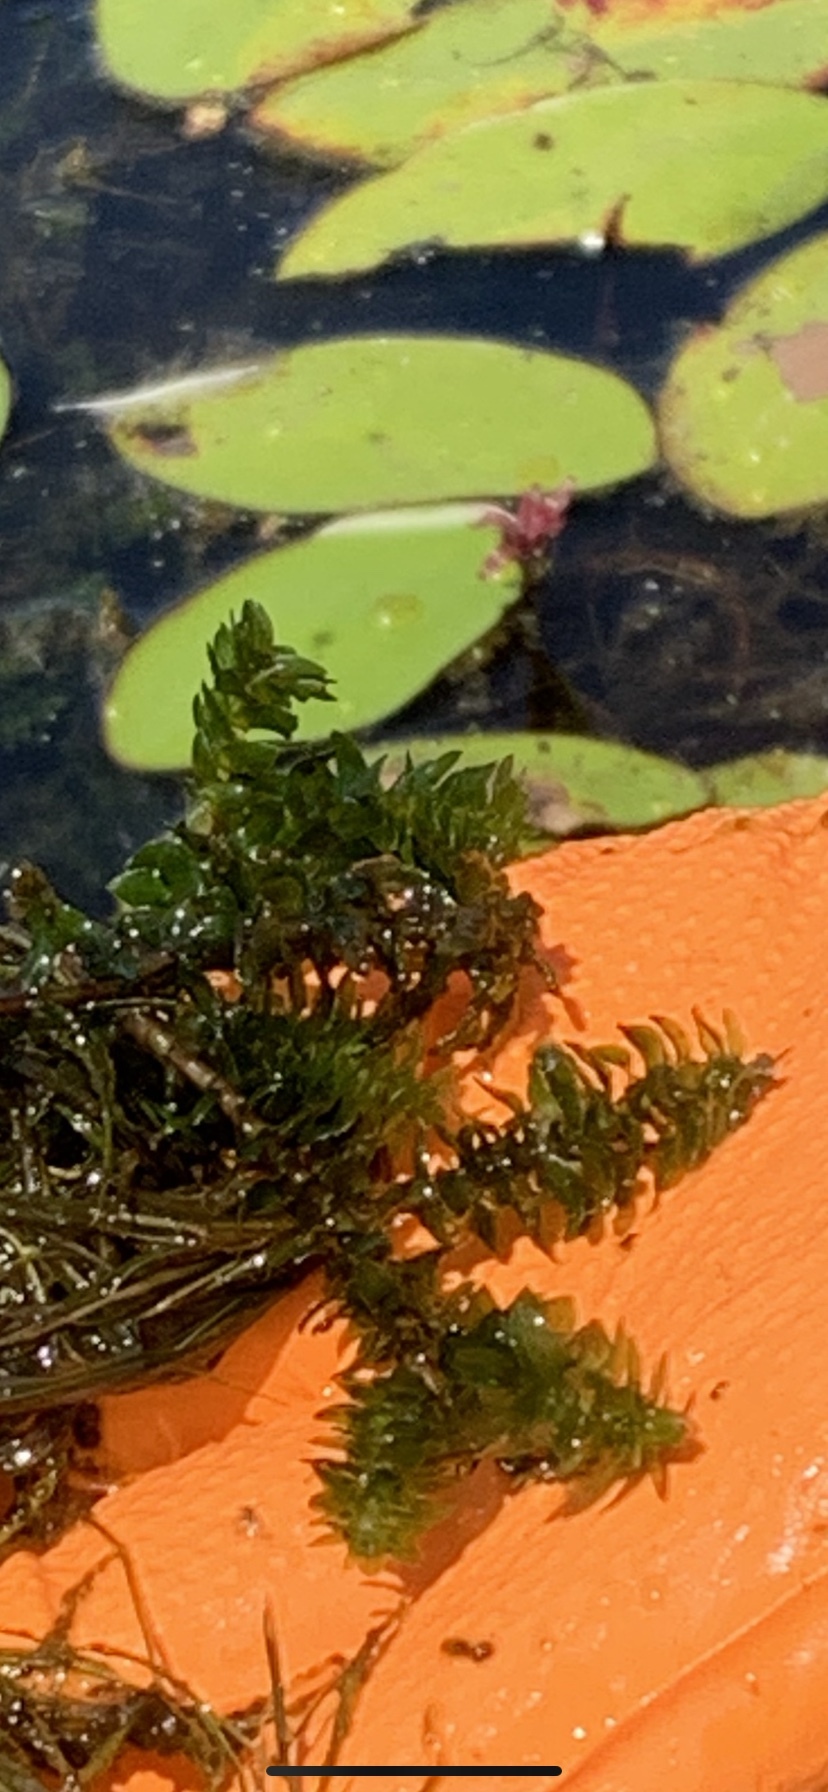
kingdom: Plantae
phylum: Tracheophyta
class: Liliopsida
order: Alismatales
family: Hydrocharitaceae
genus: Elodea
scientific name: Elodea canadensis
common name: Canadian waterweed
